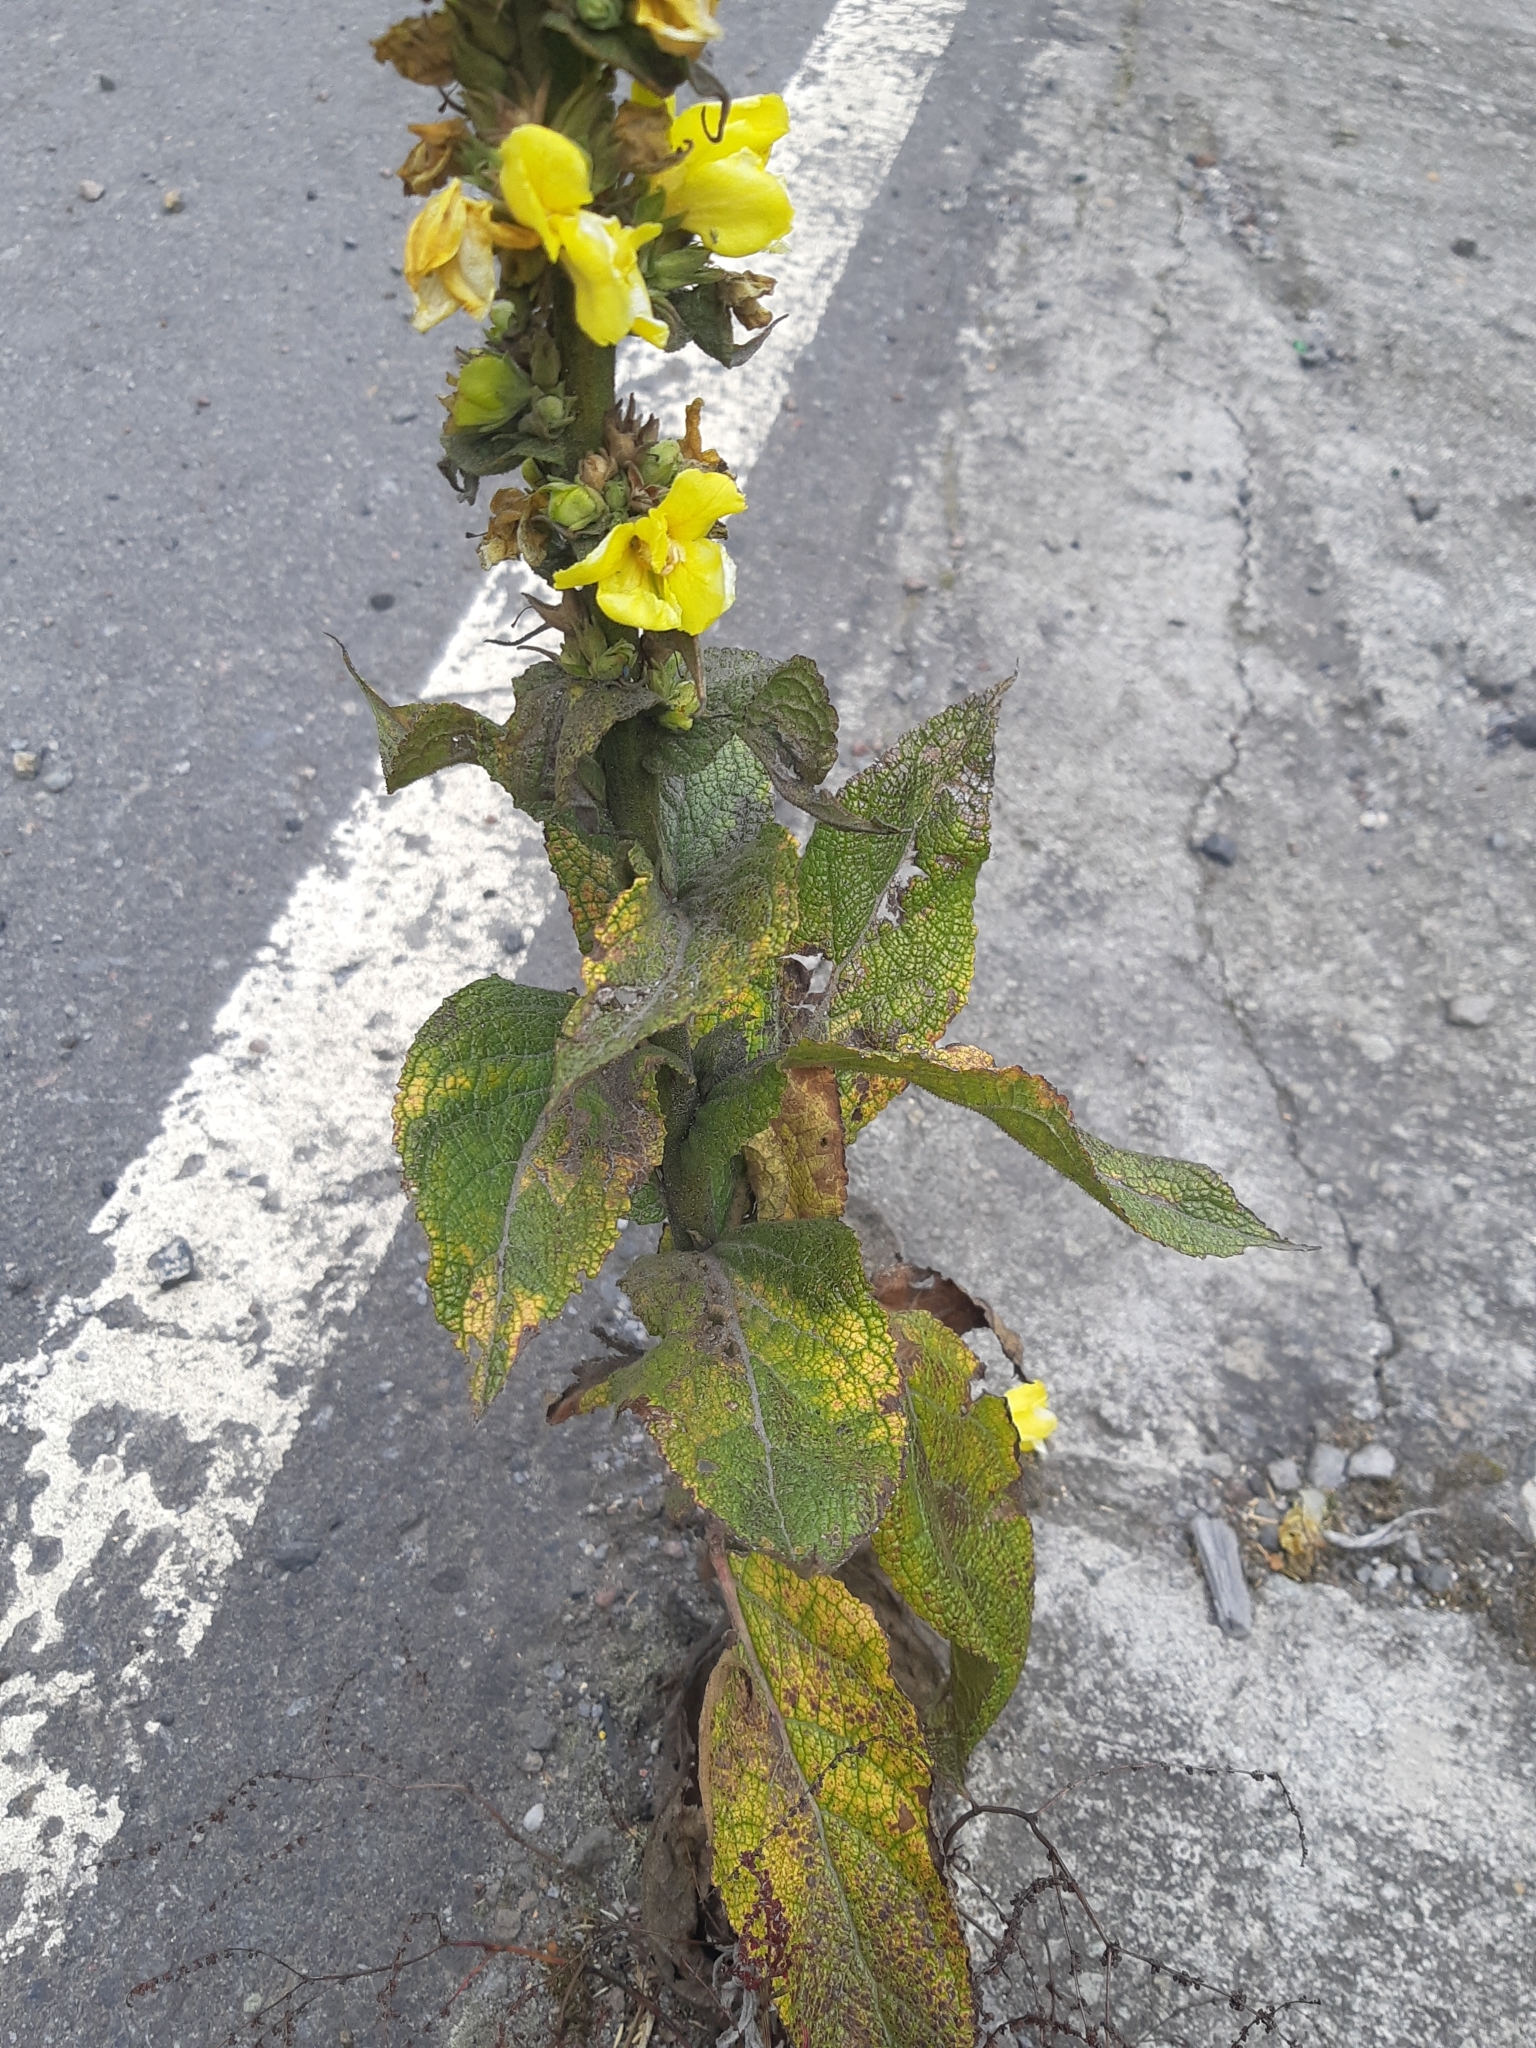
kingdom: Plantae
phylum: Tracheophyta
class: Magnoliopsida
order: Lamiales
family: Scrophulariaceae
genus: Verbascum
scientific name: Verbascum phlomoides
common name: Orange mullein
